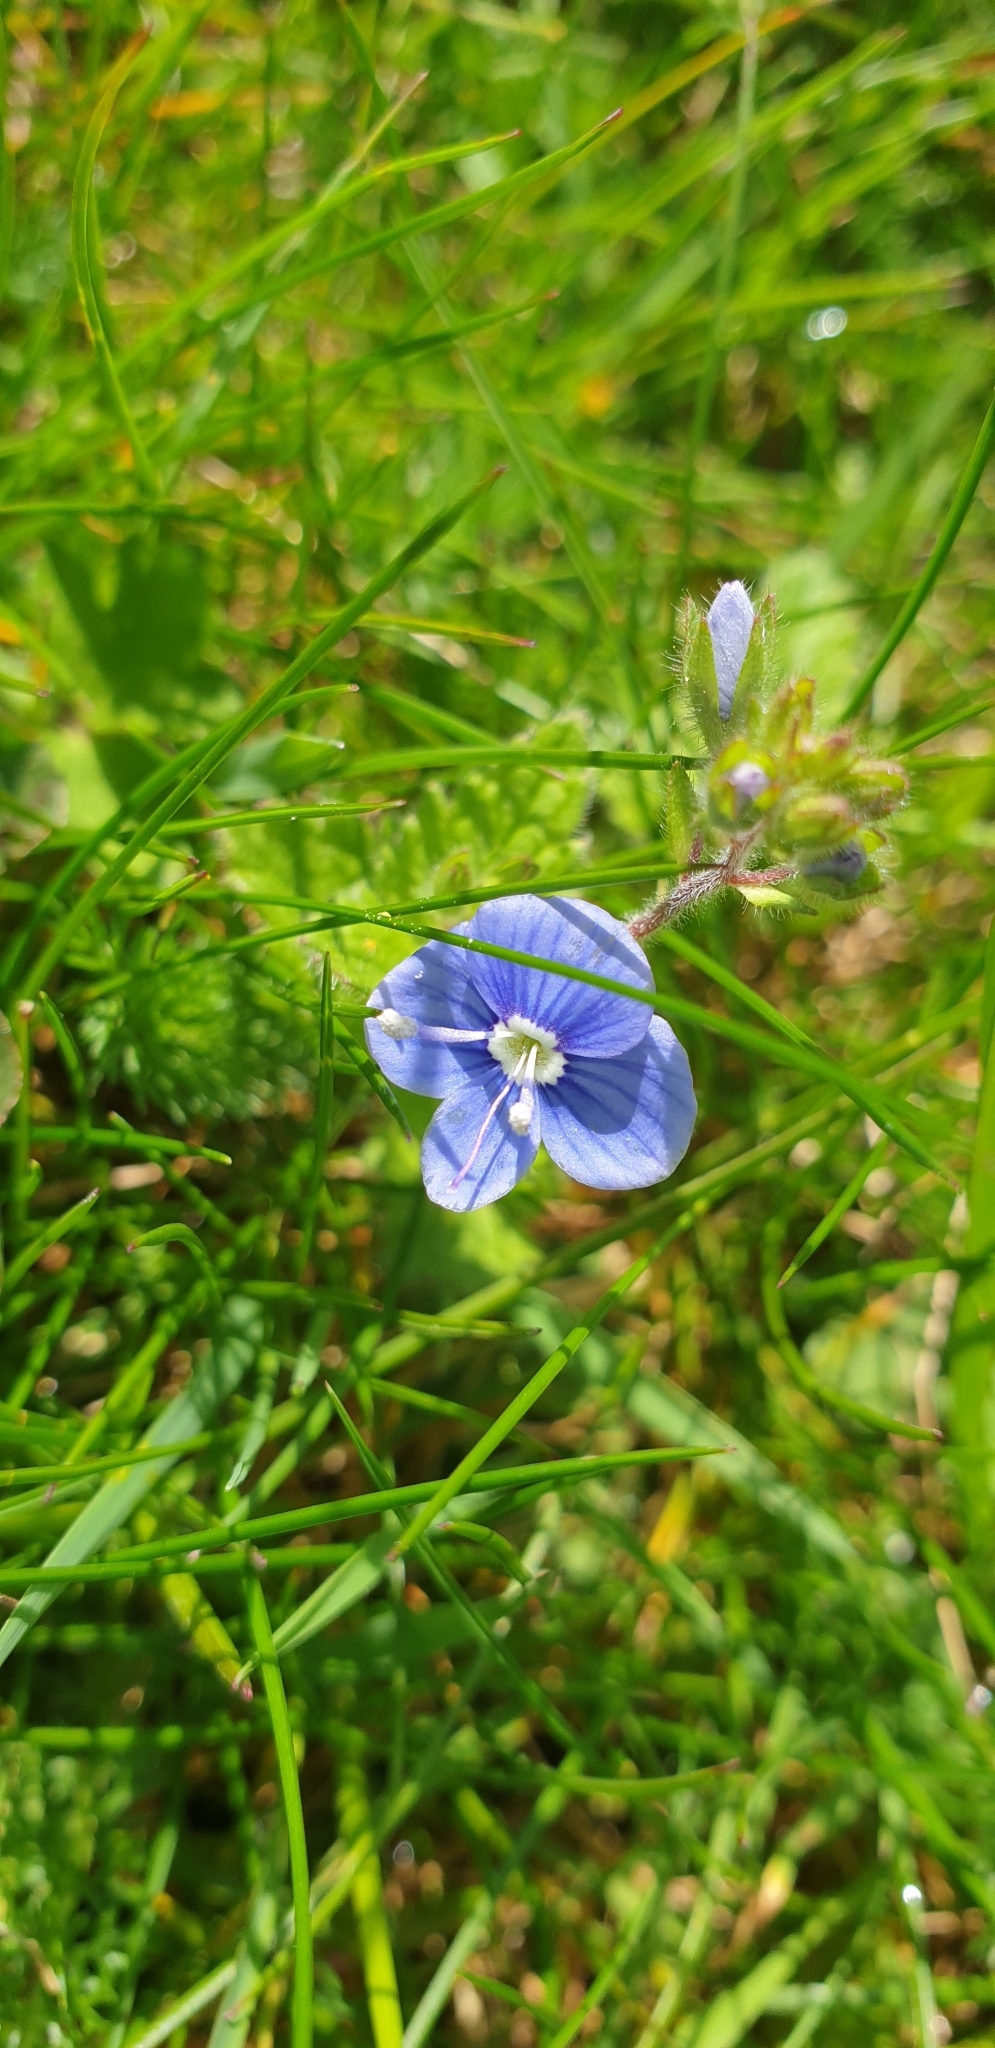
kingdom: Plantae
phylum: Tracheophyta
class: Magnoliopsida
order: Lamiales
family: Plantaginaceae
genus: Veronica
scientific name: Veronica chamaedrys
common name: Germander speedwell
